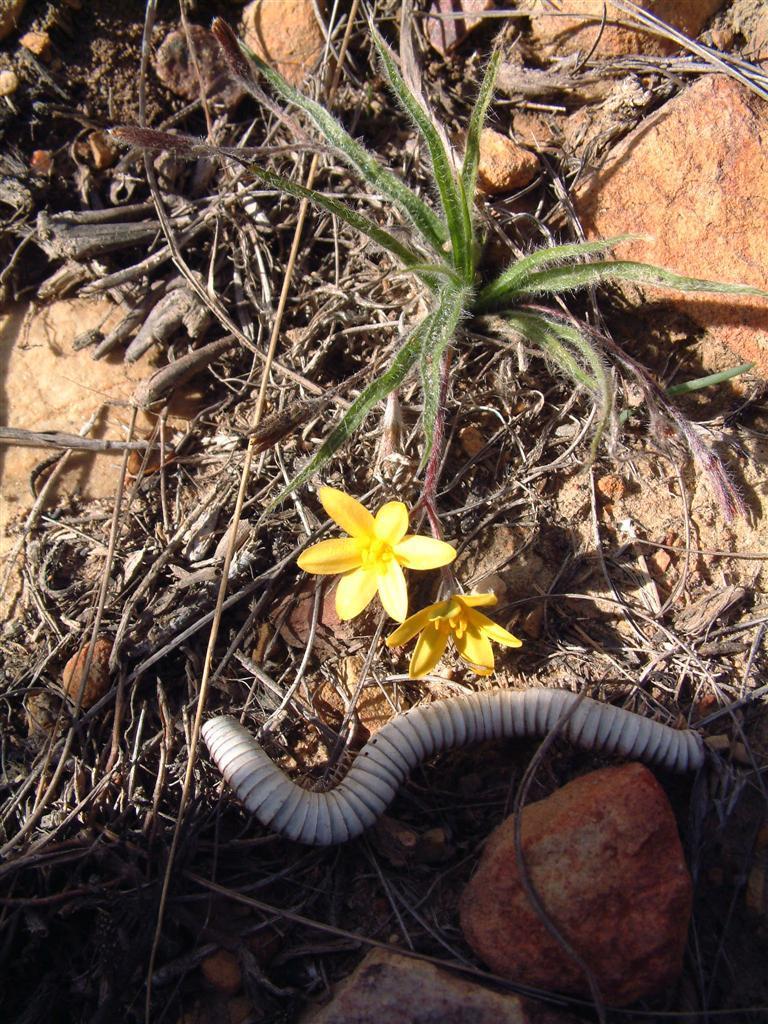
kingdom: Plantae
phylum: Tracheophyta
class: Liliopsida
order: Asparagales
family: Hypoxidaceae
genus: Hypoxis
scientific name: Hypoxis floccosa
